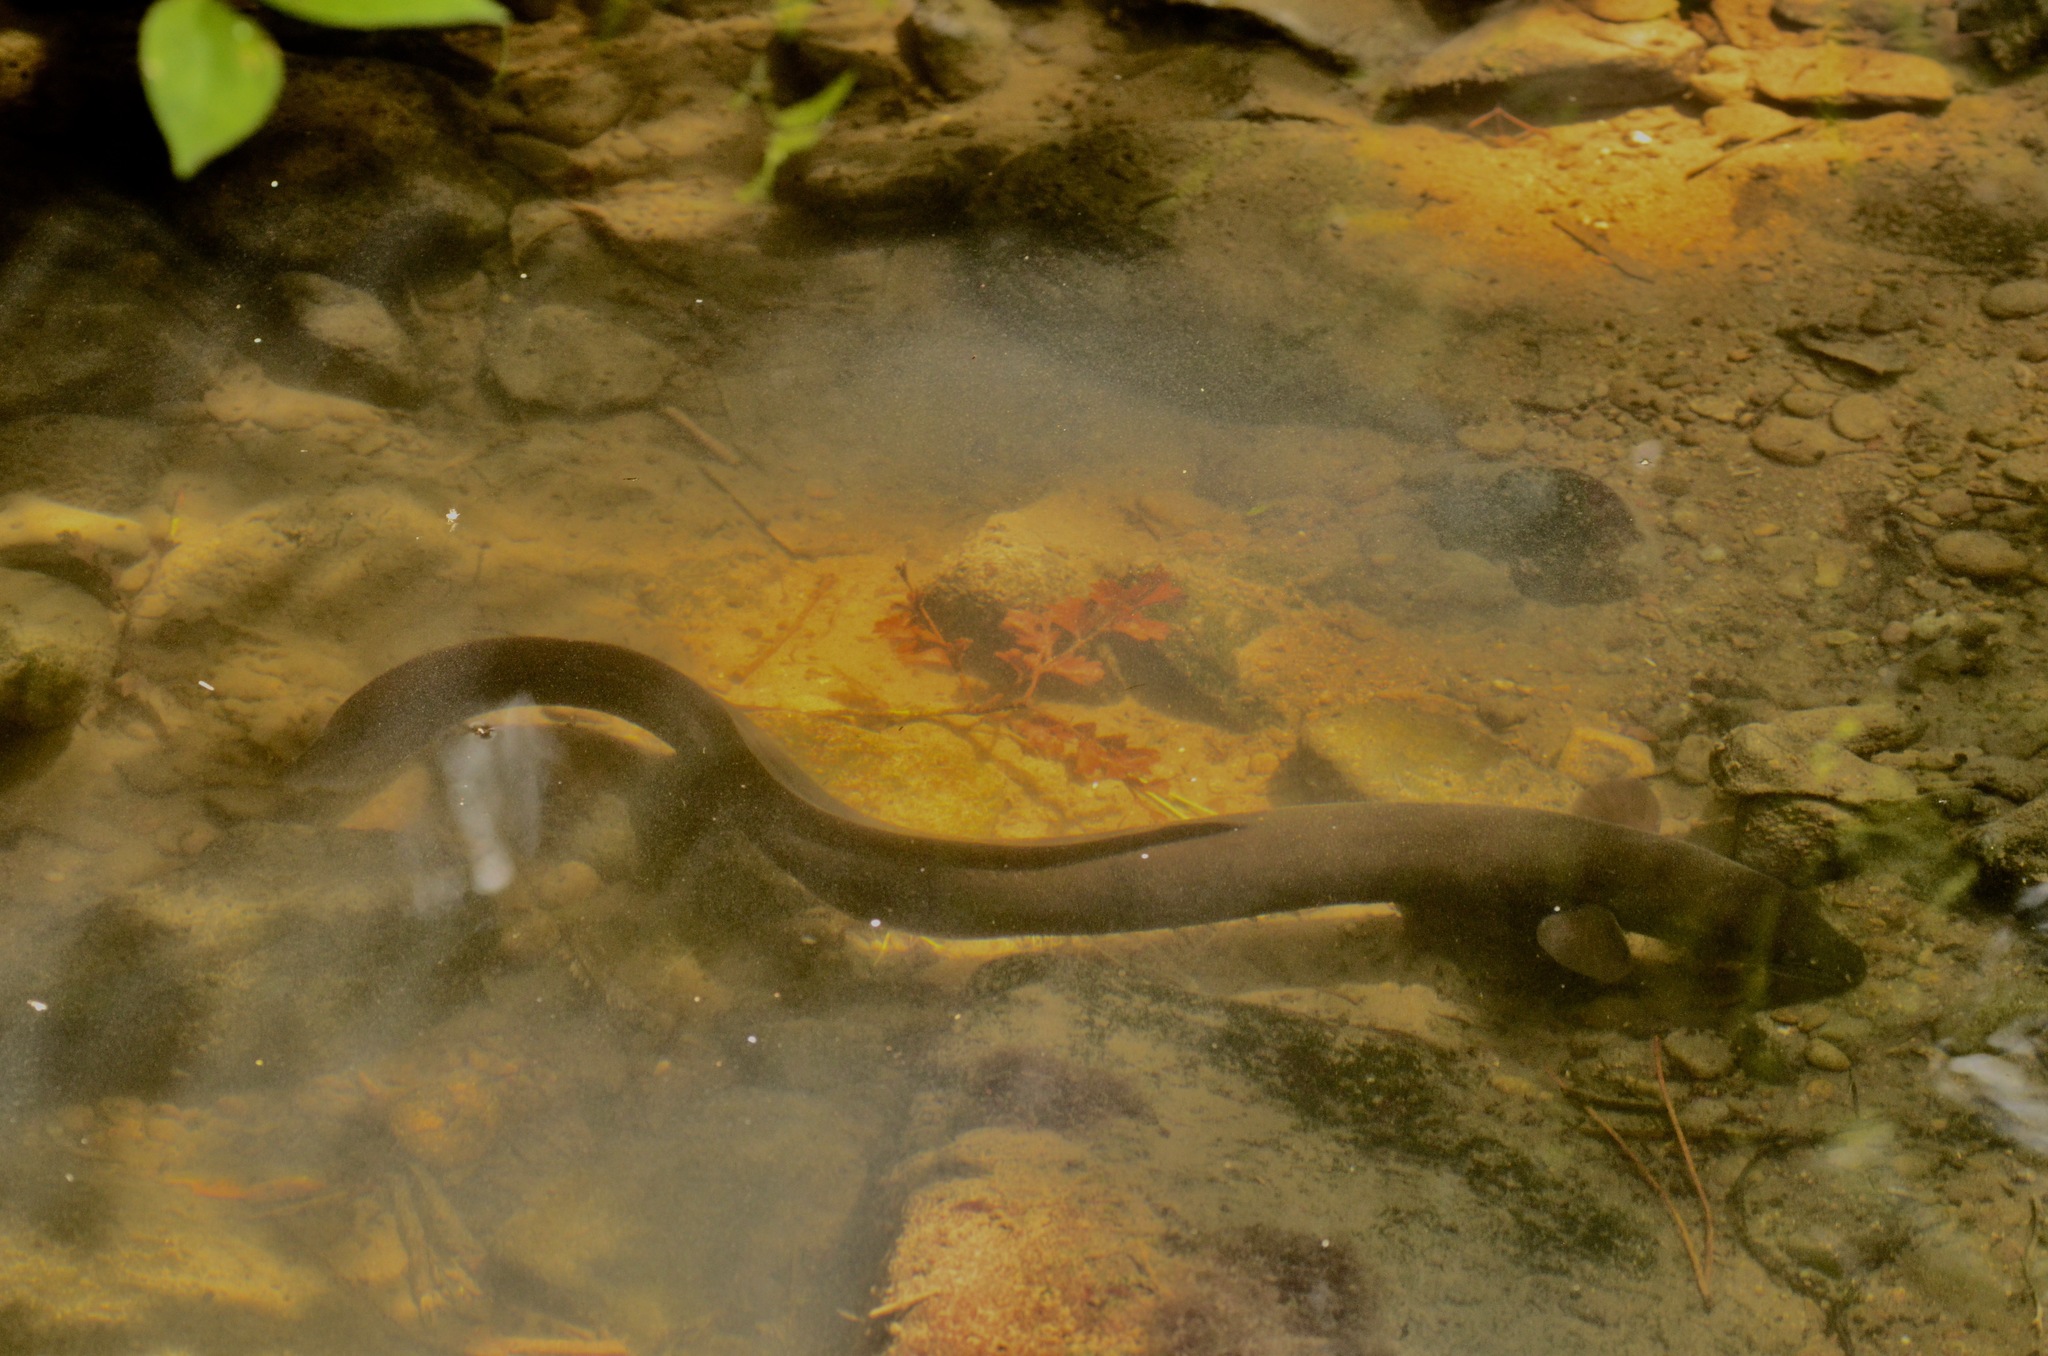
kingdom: Animalia
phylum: Chordata
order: Anguilliformes
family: Anguillidae
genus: Anguilla
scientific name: Anguilla dieffenbachii
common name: New zealand longfin eel
